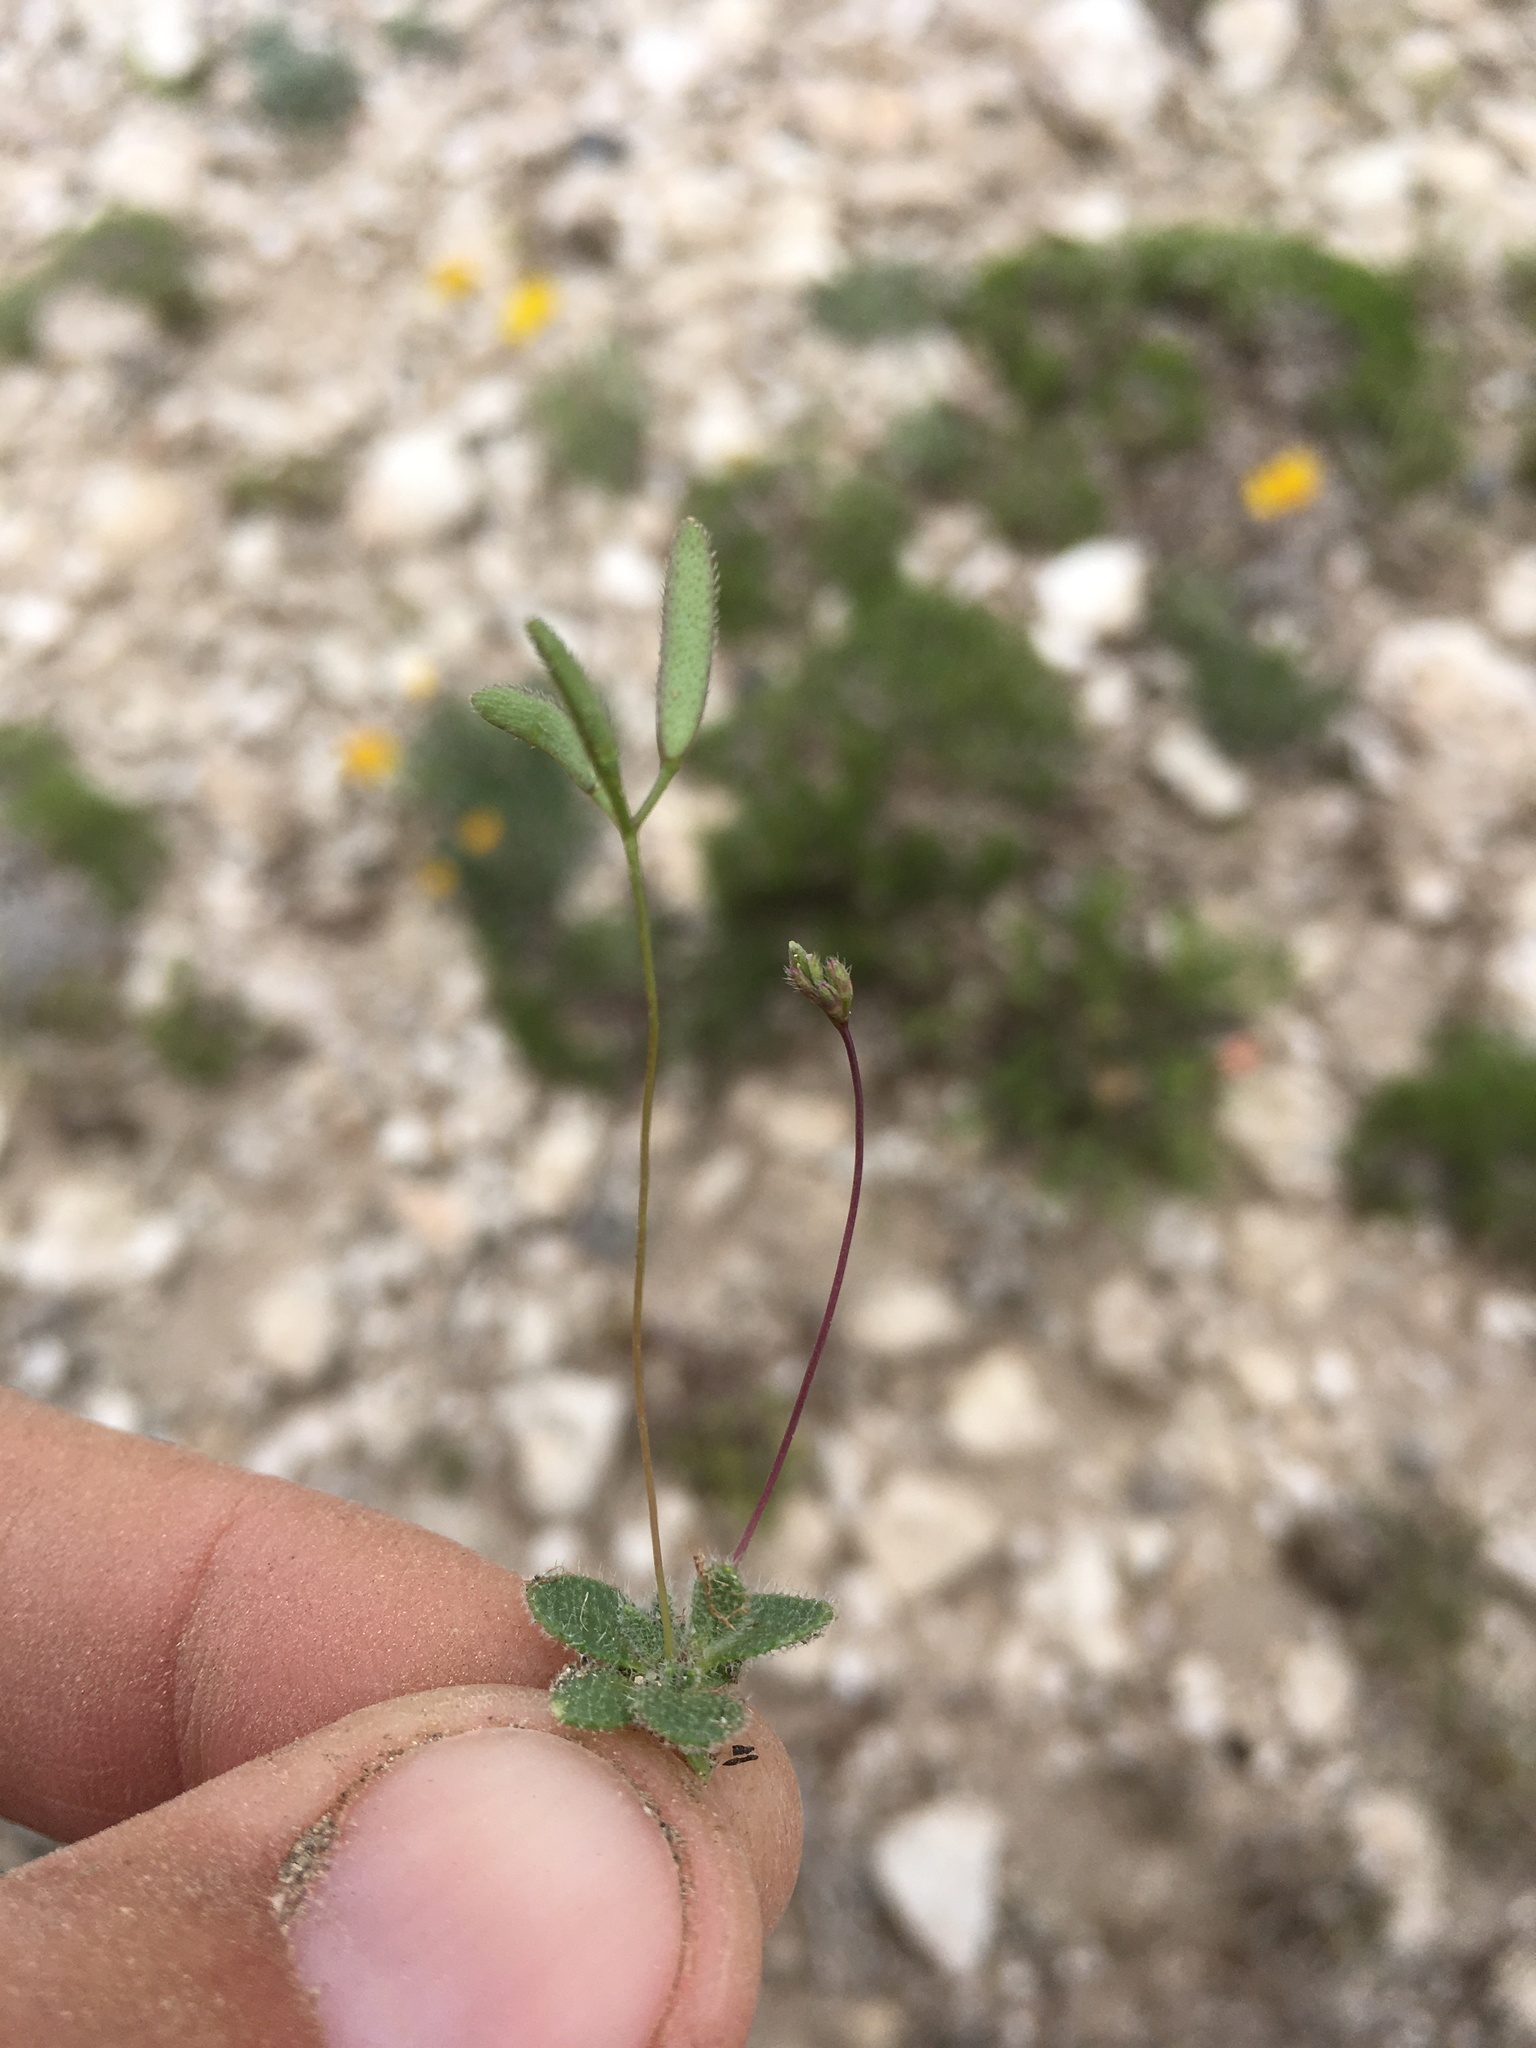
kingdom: Plantae
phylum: Tracheophyta
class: Magnoliopsida
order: Brassicales
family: Brassicaceae
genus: Tomostima
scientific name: Tomostima reptans
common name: Carolina draba
